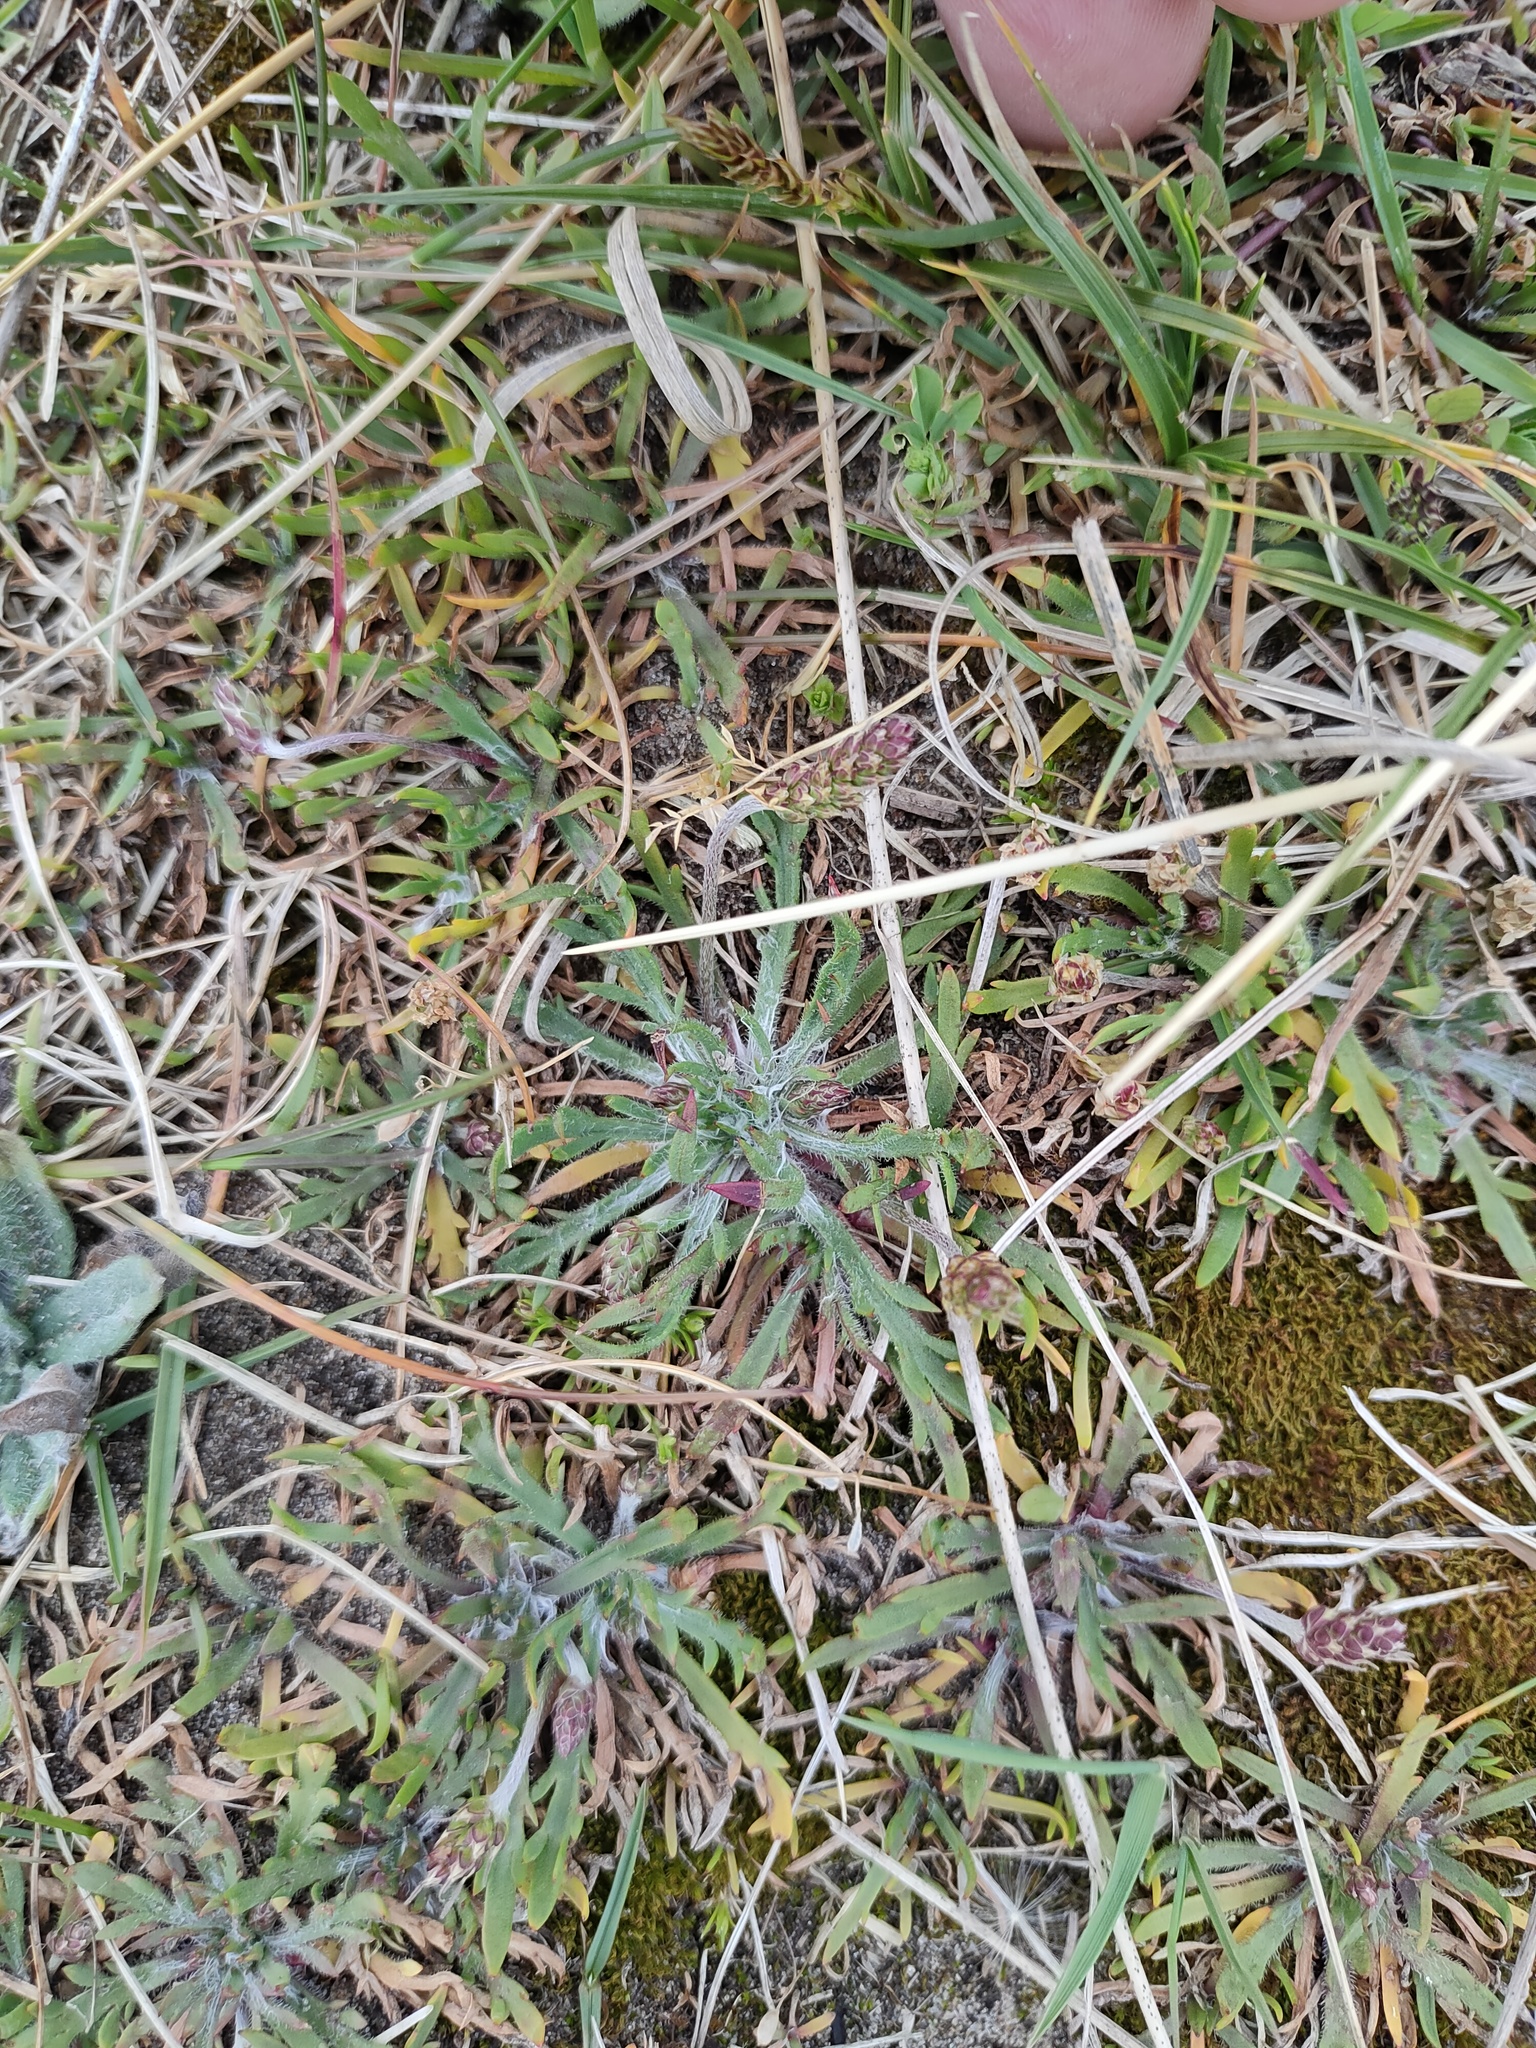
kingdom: Plantae
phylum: Tracheophyta
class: Magnoliopsida
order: Lamiales
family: Plantaginaceae
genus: Plantago
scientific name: Plantago coronopus
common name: Buck's-horn plantain
